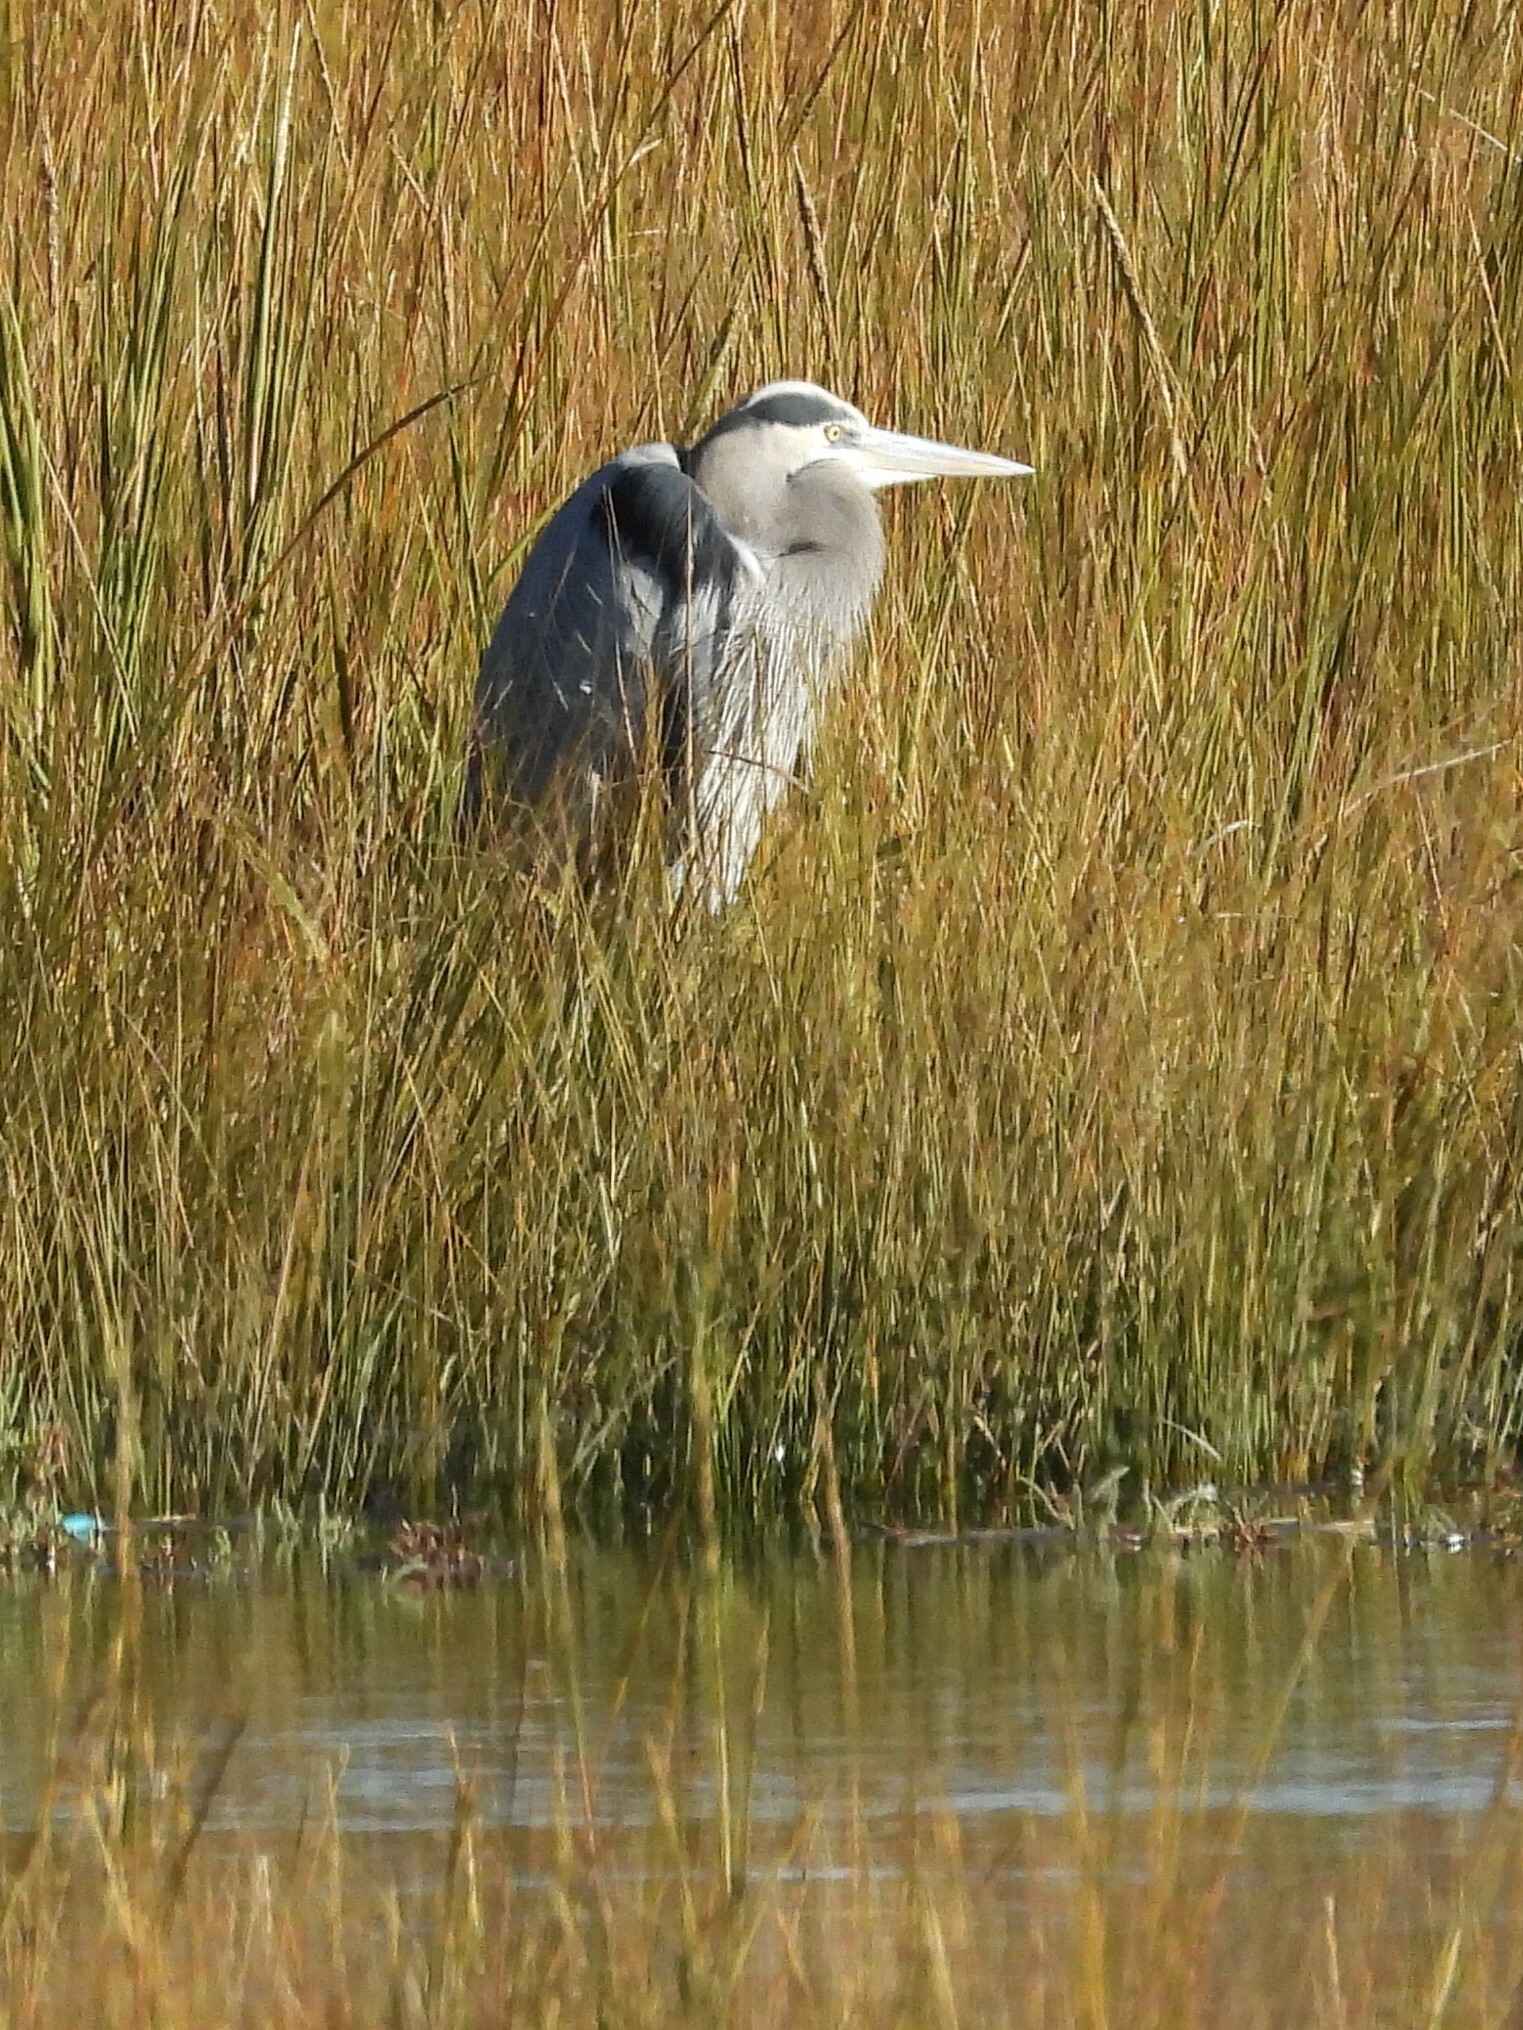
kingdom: Animalia
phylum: Chordata
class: Aves
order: Pelecaniformes
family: Ardeidae
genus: Ardea
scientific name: Ardea herodias
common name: Great blue heron
